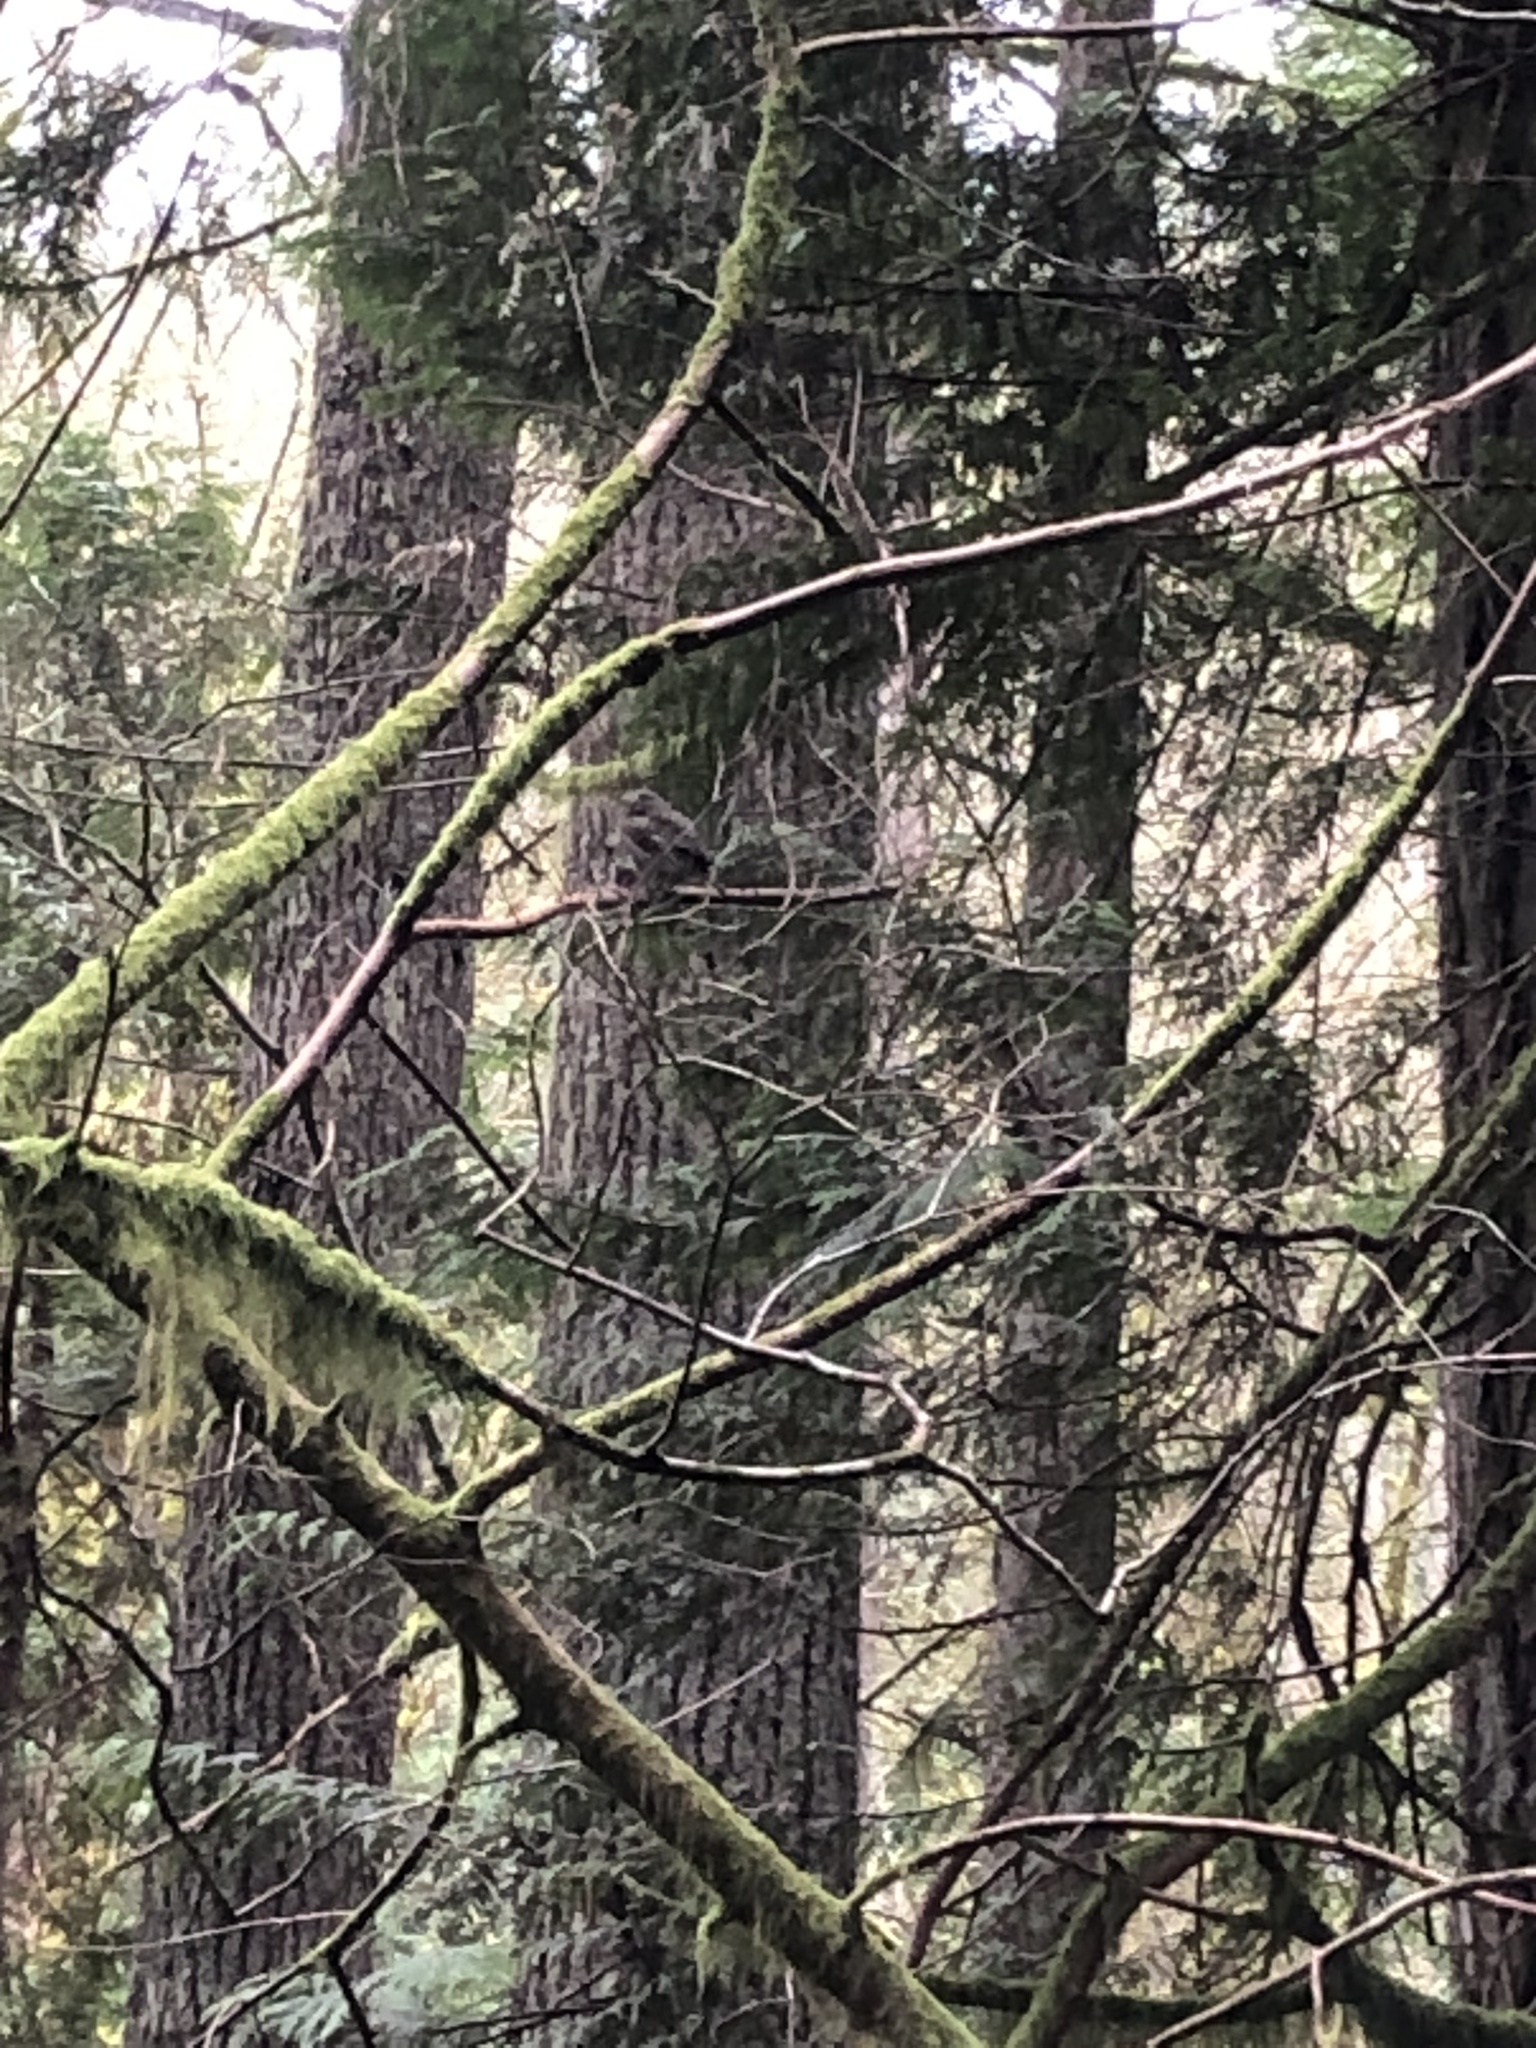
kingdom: Animalia
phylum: Chordata
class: Aves
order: Strigiformes
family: Strigidae
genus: Glaucidium
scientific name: Glaucidium gnoma
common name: Northern pygmy-owl
